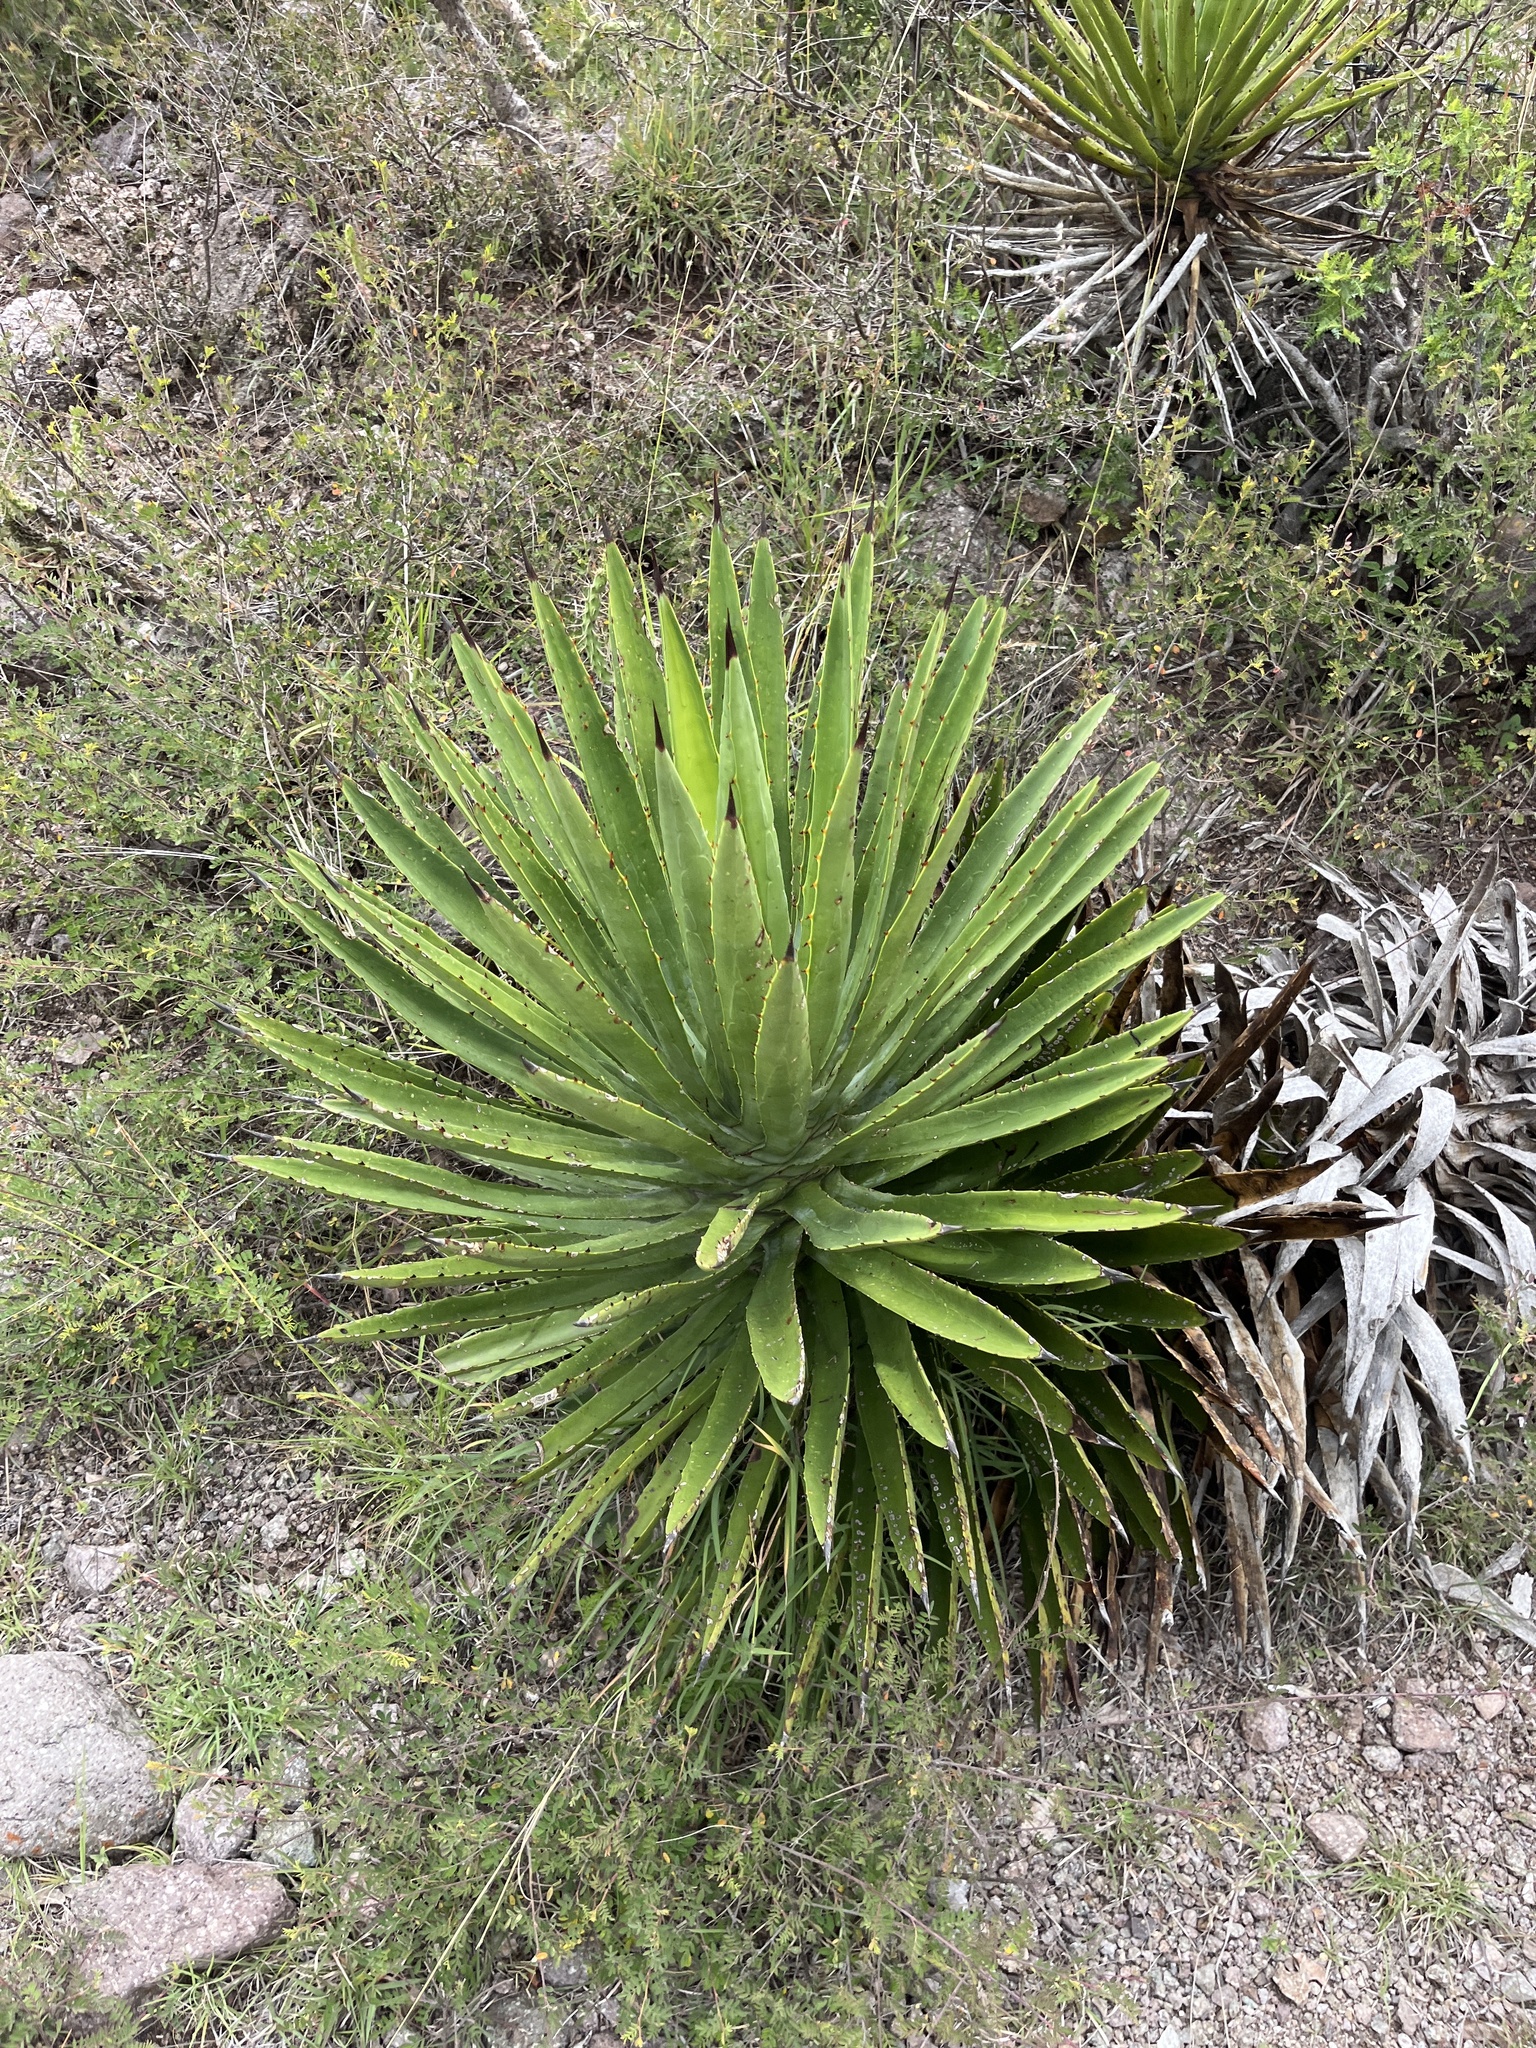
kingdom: Plantae
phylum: Tracheophyta
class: Liliopsida
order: Asparagales
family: Asparagaceae
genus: Agave
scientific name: Agave karwinskii
